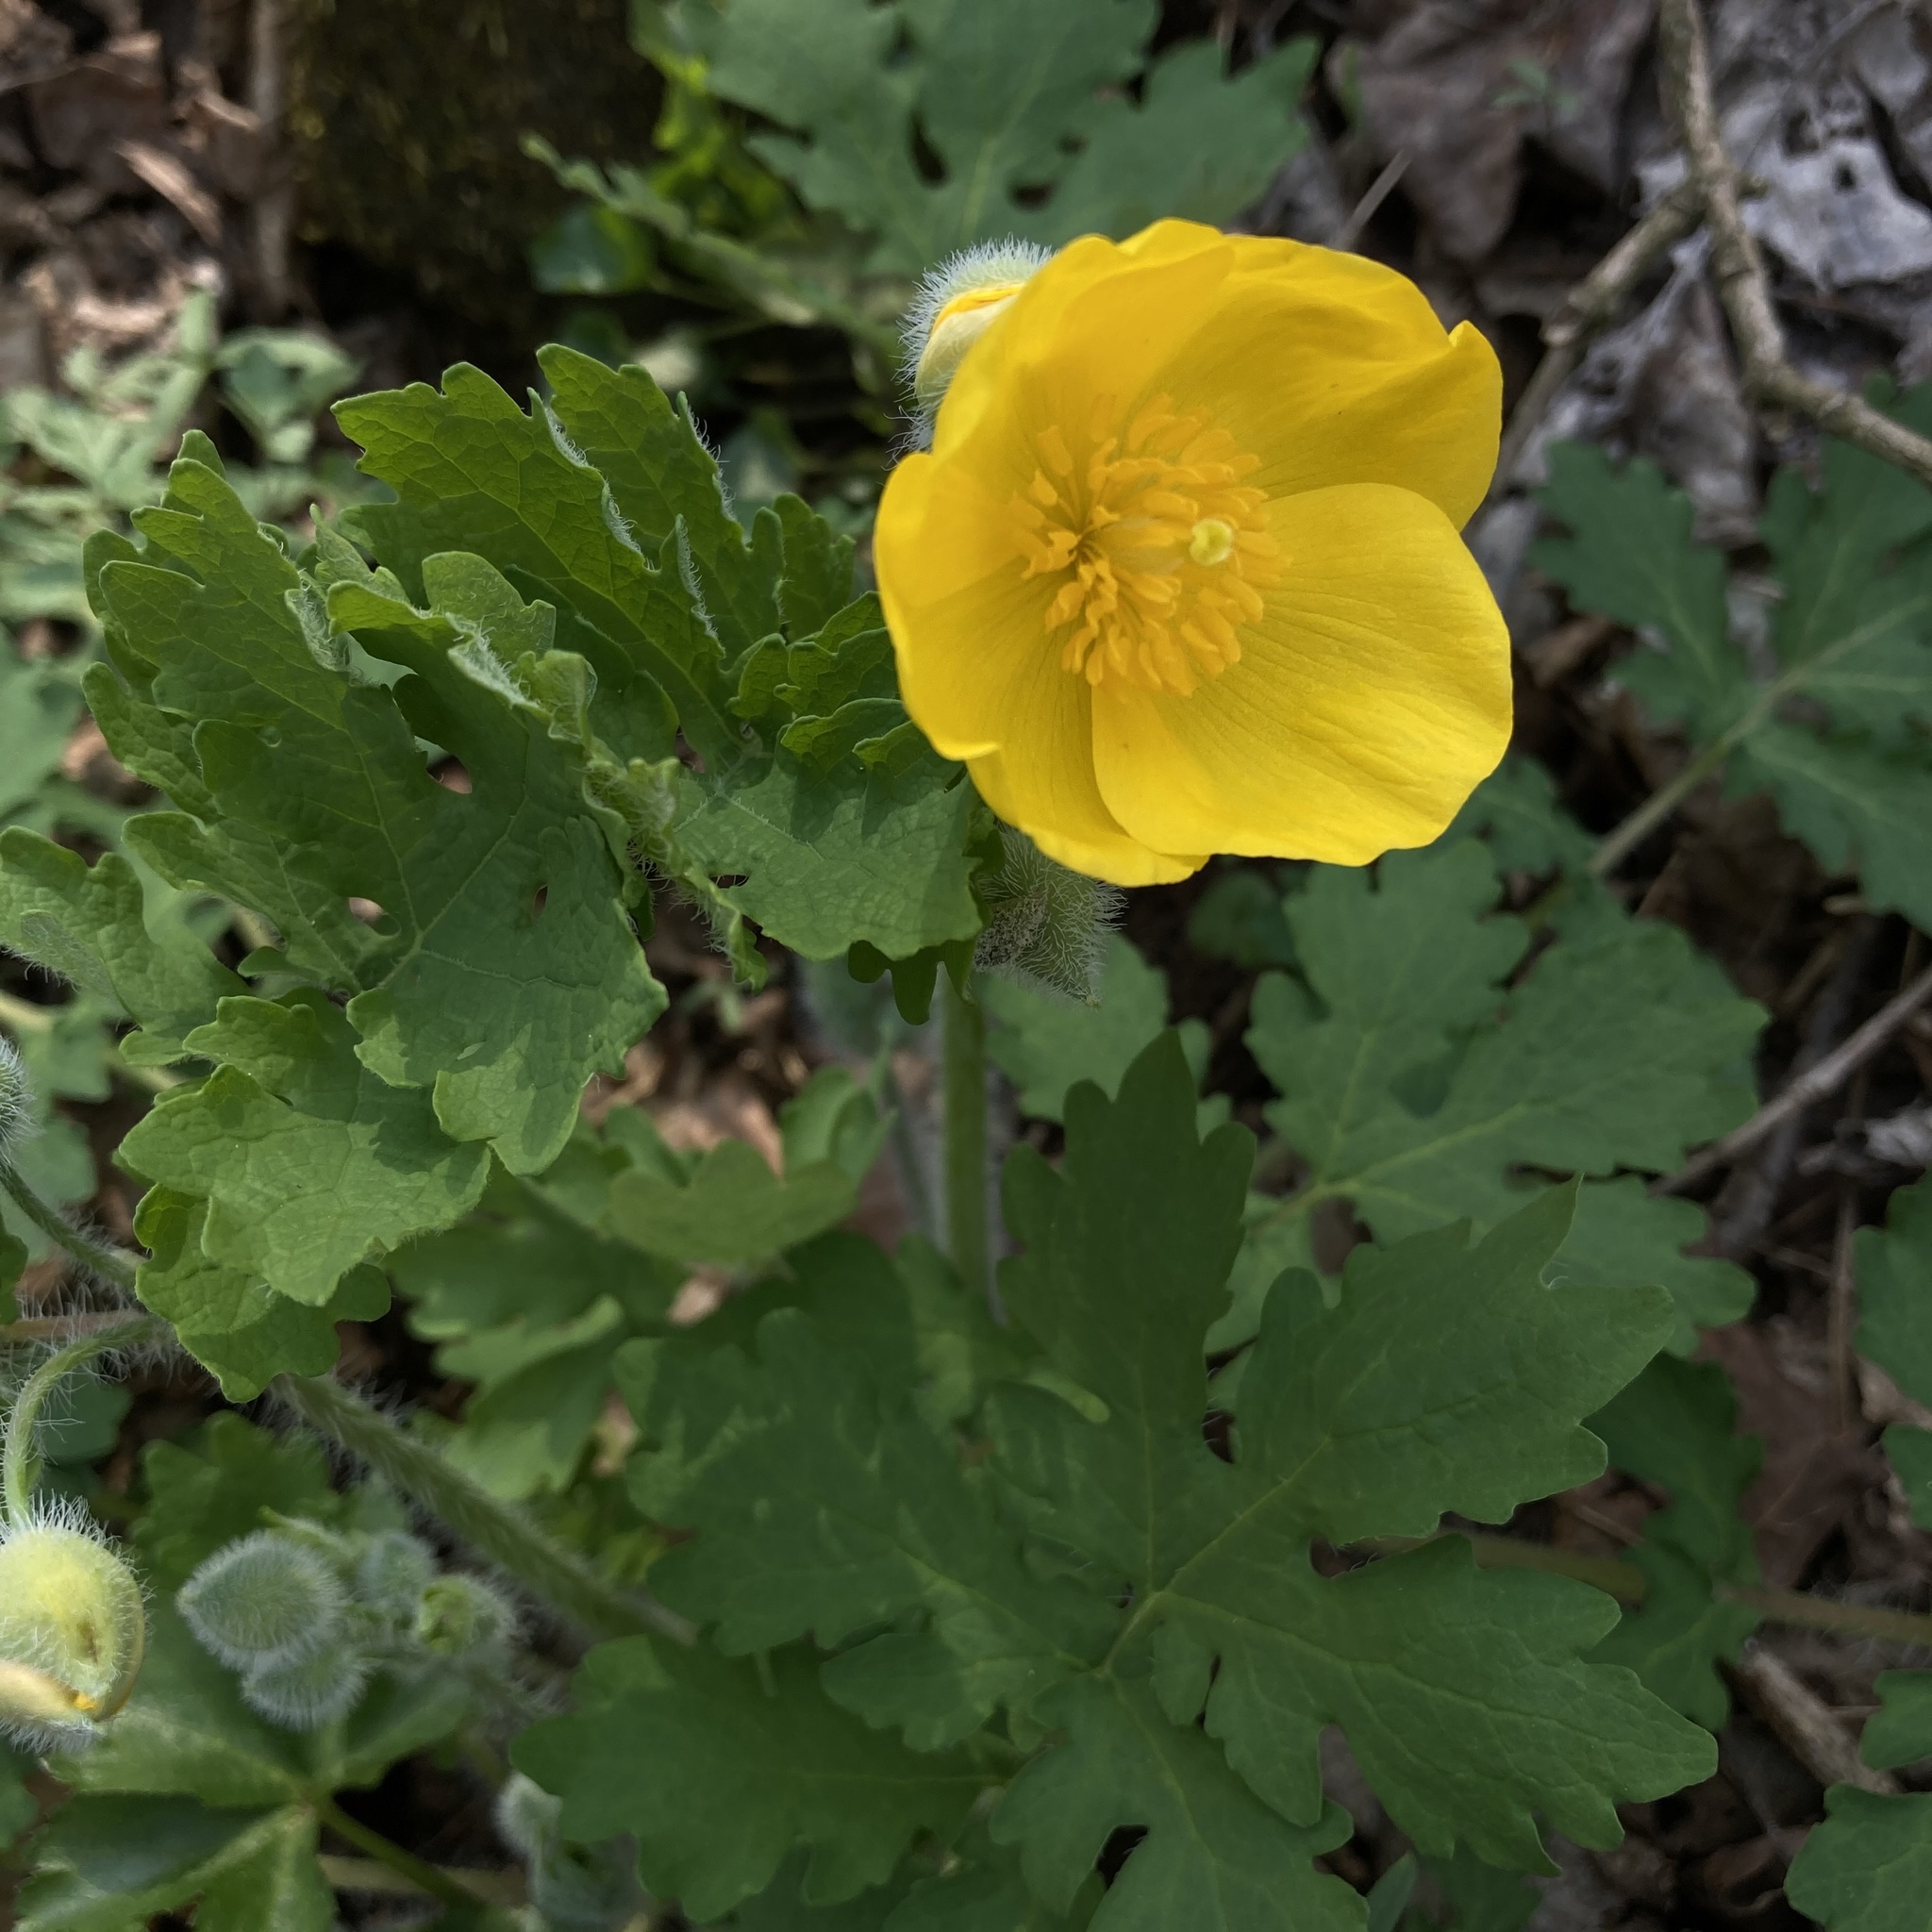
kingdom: Plantae
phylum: Tracheophyta
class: Magnoliopsida
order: Ranunculales
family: Papaveraceae
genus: Stylophorum
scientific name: Stylophorum diphyllum
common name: Celandine poppy
